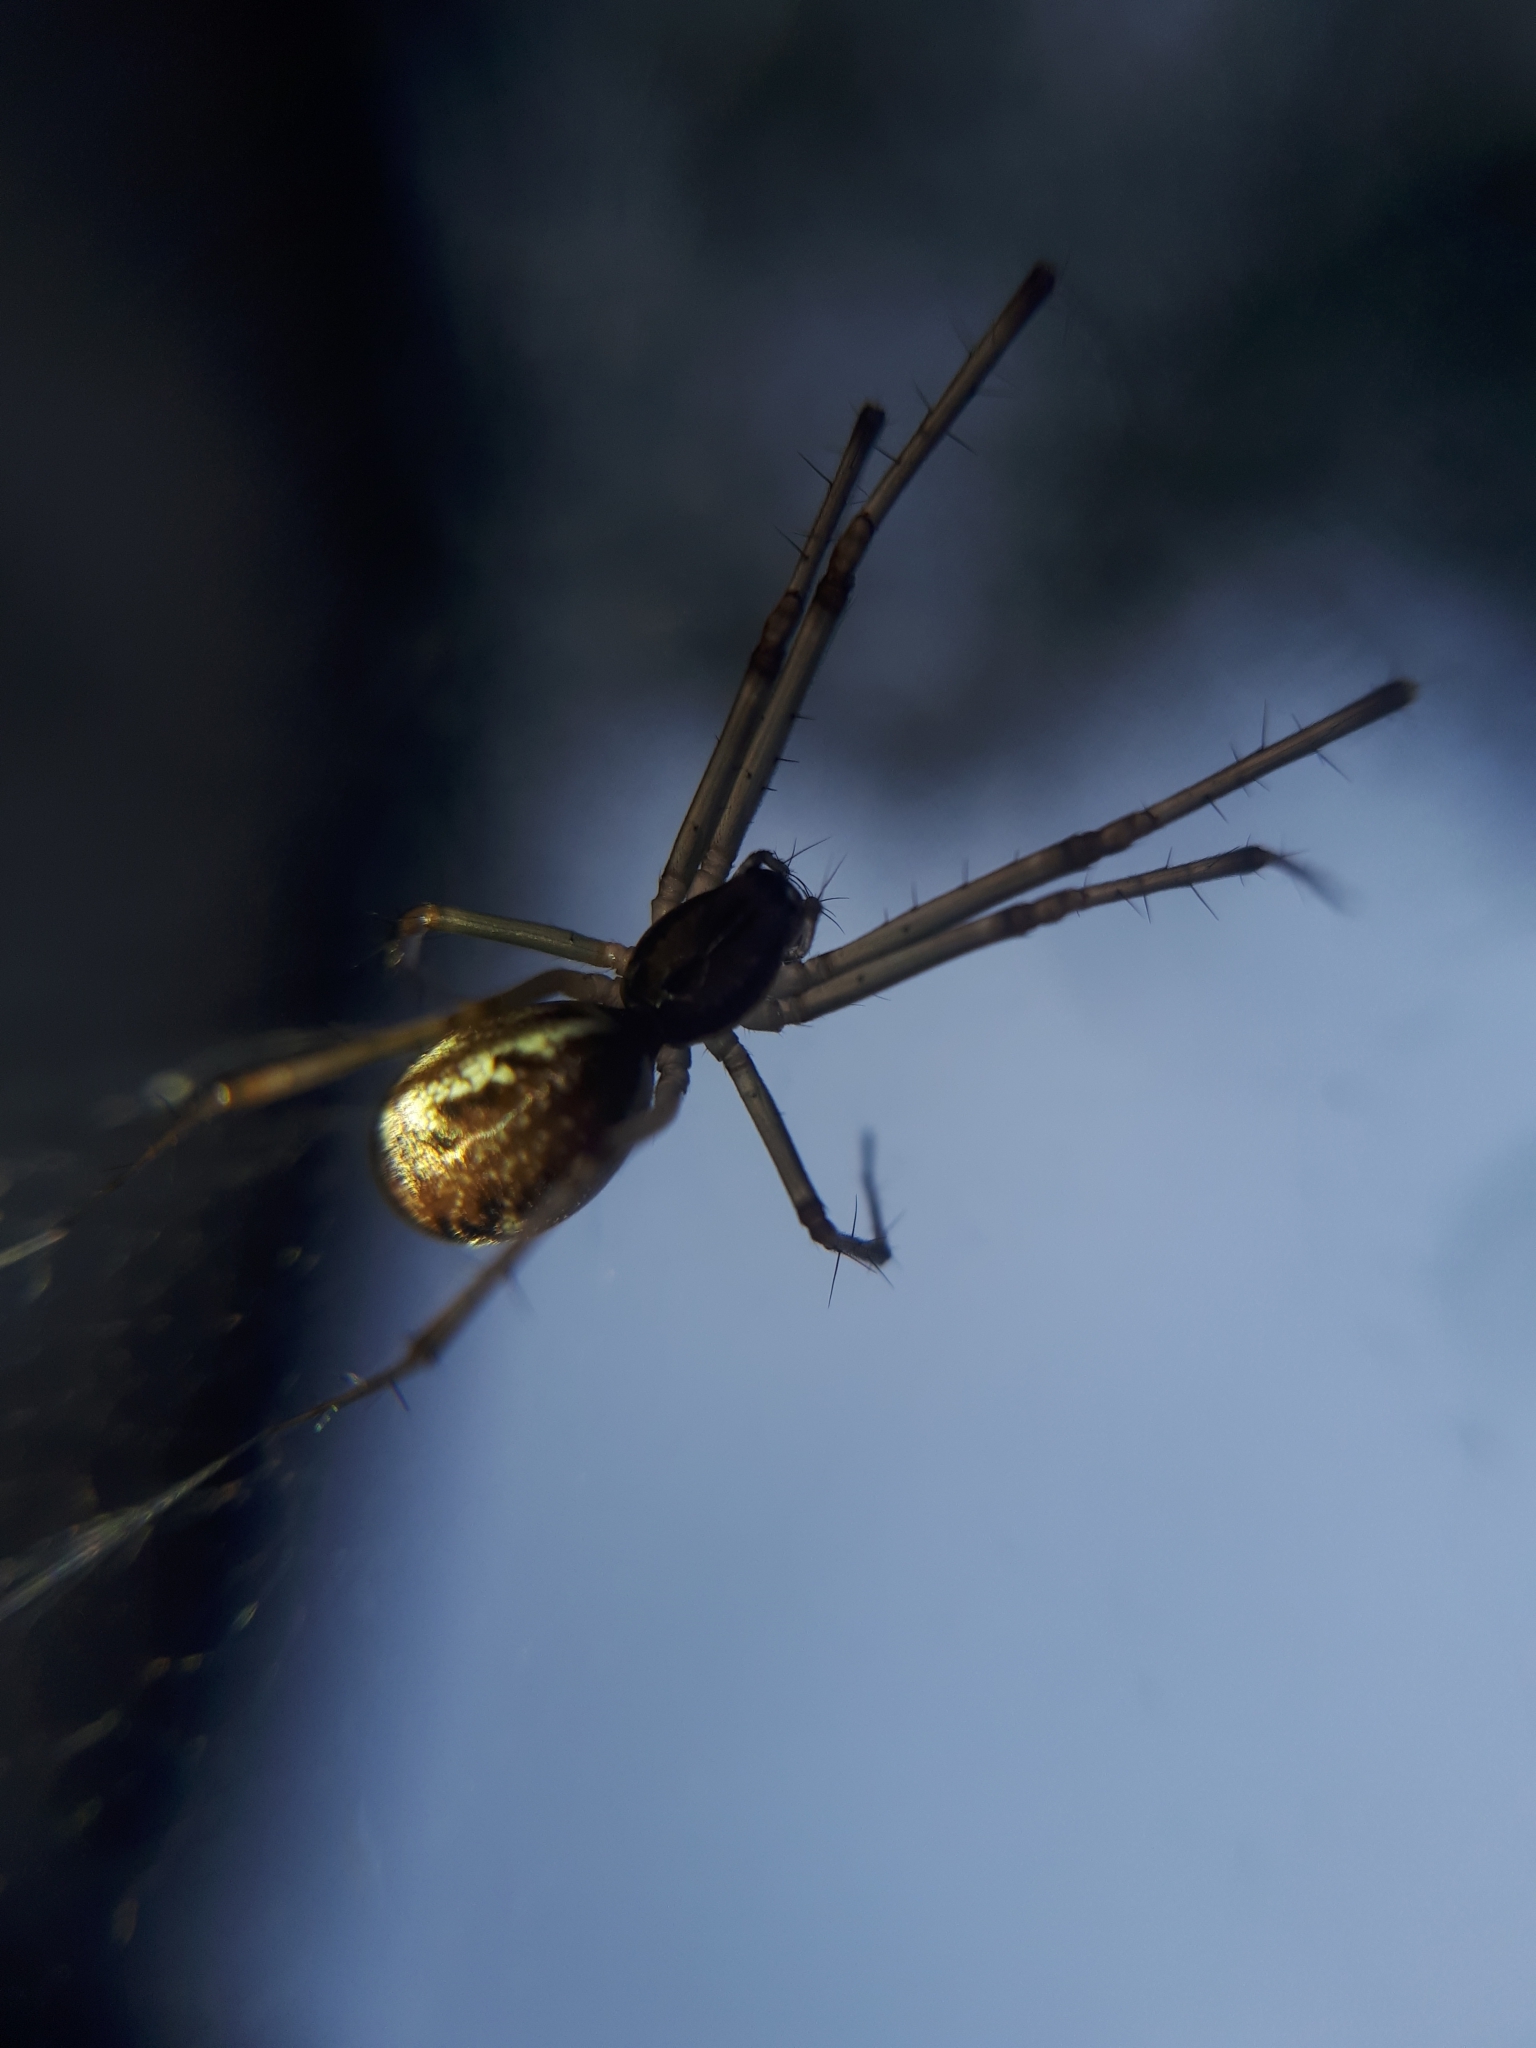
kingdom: Animalia
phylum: Arthropoda
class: Arachnida
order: Araneae
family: Linyphiidae
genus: Linyphia
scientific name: Linyphia triangularis
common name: Money spider
